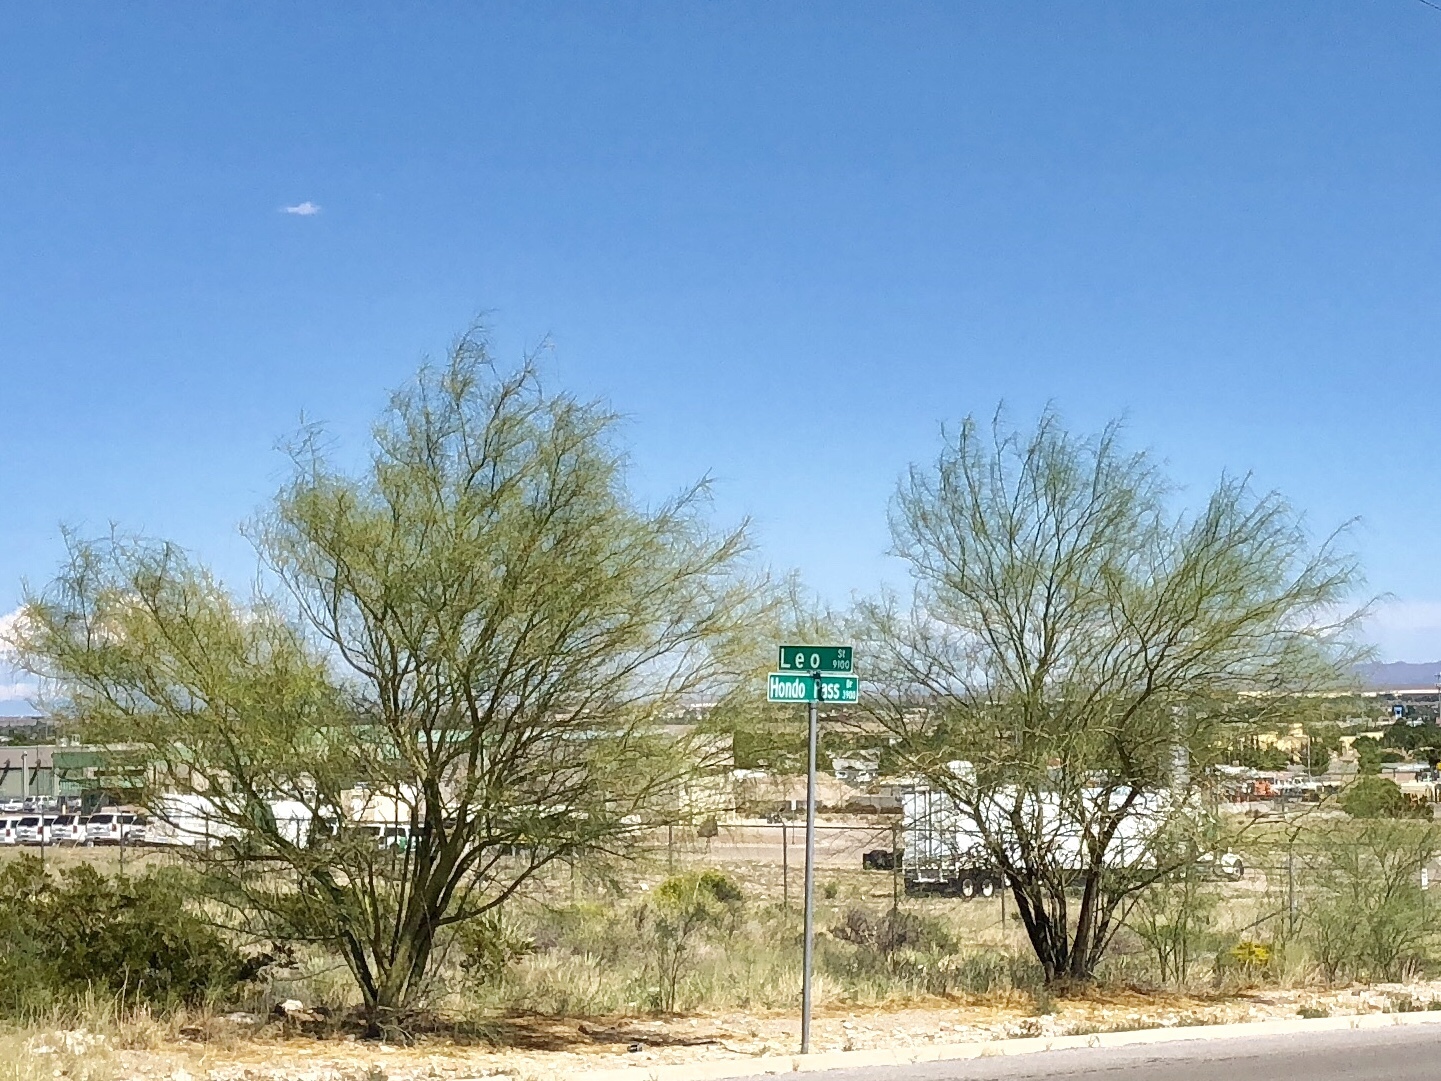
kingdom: Plantae
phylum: Tracheophyta
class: Magnoliopsida
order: Fabales
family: Fabaceae
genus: Parkinsonia
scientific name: Parkinsonia aculeata
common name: Jerusalem thorn
